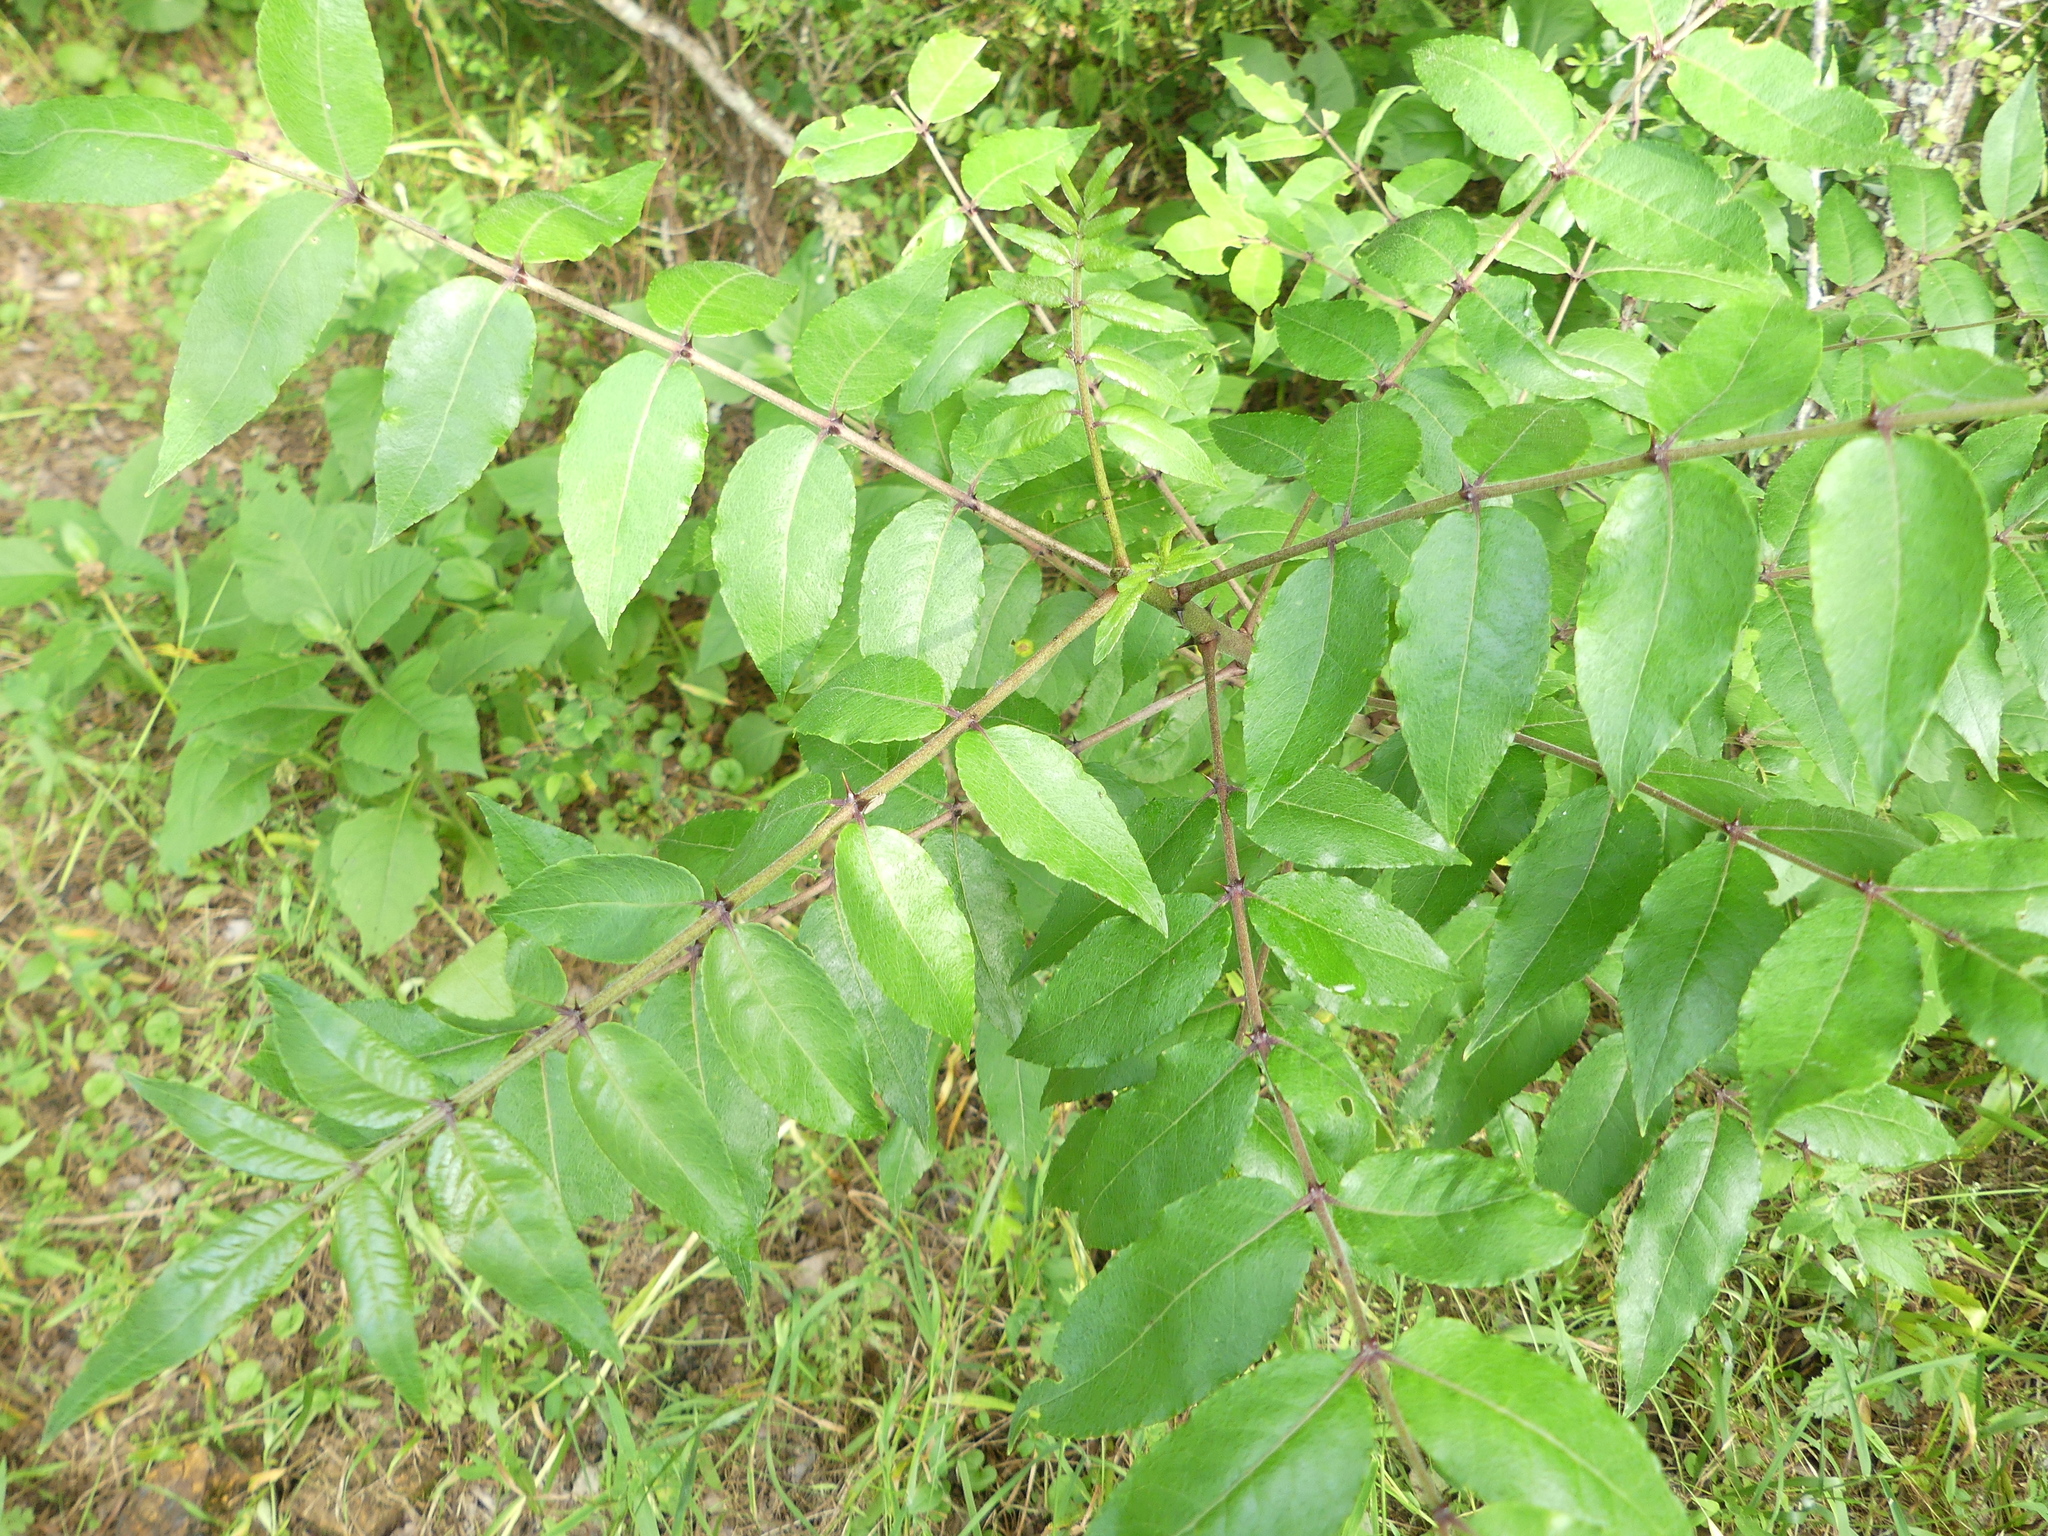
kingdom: Plantae
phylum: Tracheophyta
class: Magnoliopsida
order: Sapindales
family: Rutaceae
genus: Zanthoxylum
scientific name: Zanthoxylum clava-herculis
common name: Hercules'-club
